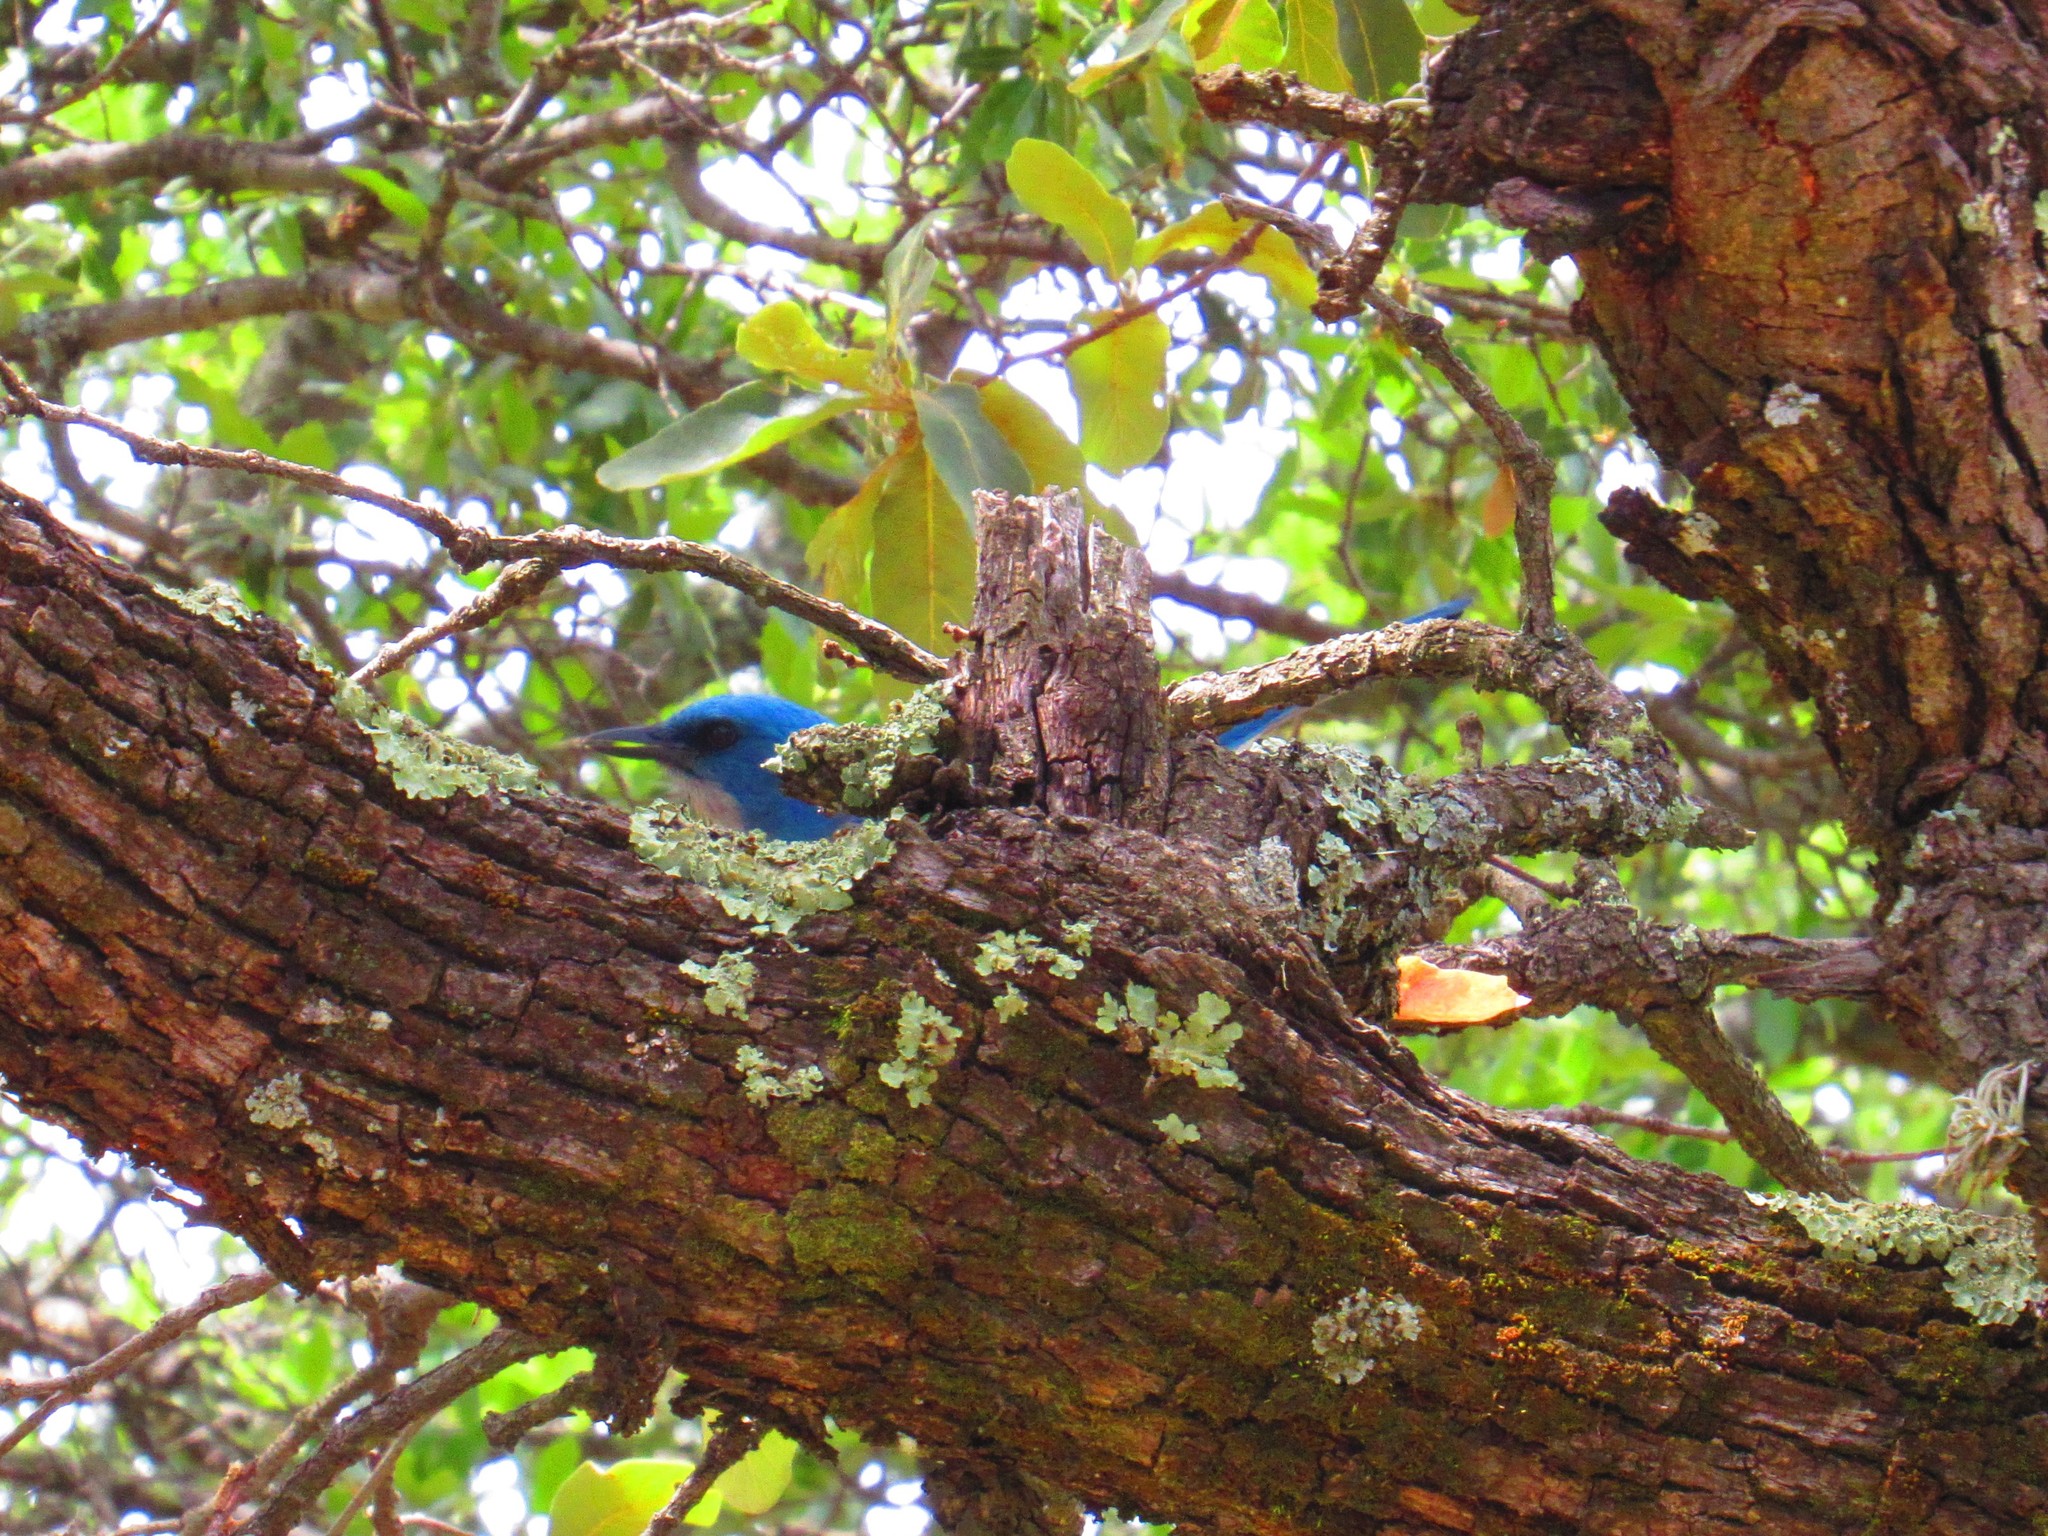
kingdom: Animalia
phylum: Chordata
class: Aves
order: Passeriformes
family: Corvidae
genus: Aphelocoma
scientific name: Aphelocoma wollweberi
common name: Mexican jay
